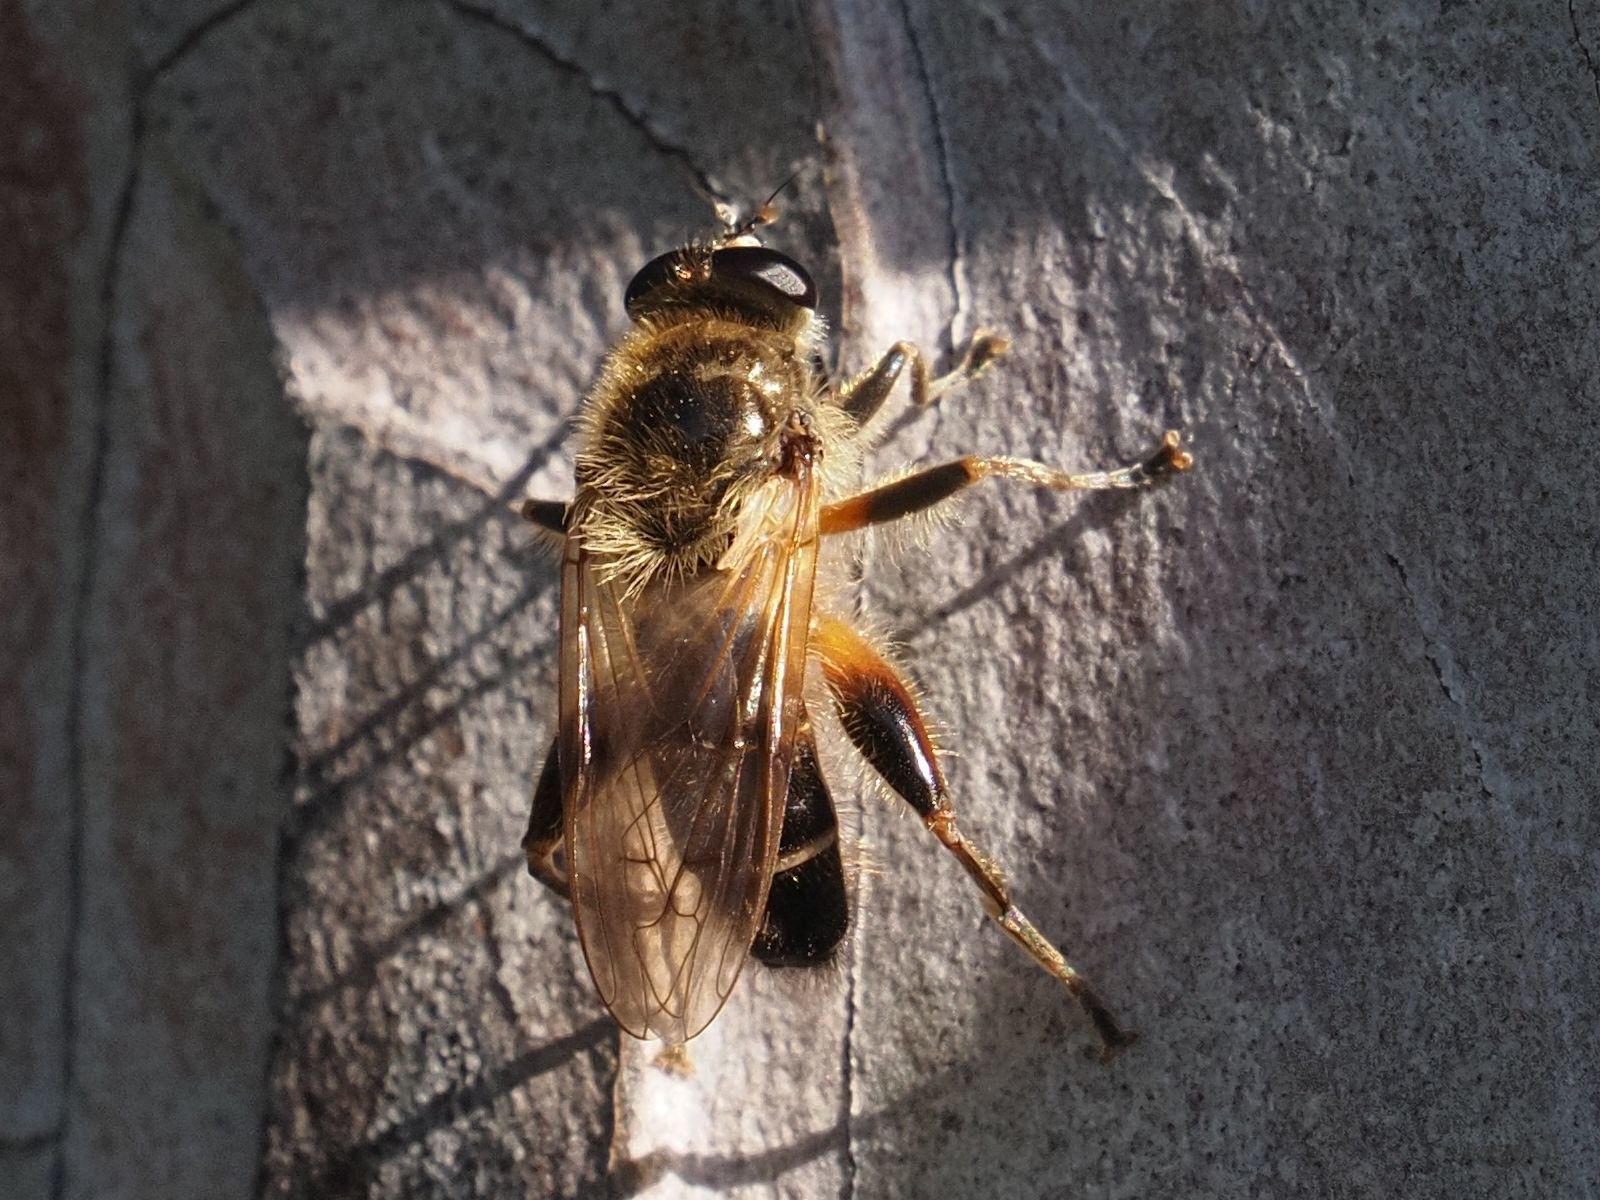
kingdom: Animalia
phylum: Arthropoda
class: Insecta
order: Diptera
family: Syrphidae
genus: Brachypalpus
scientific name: Brachypalpus valgus
